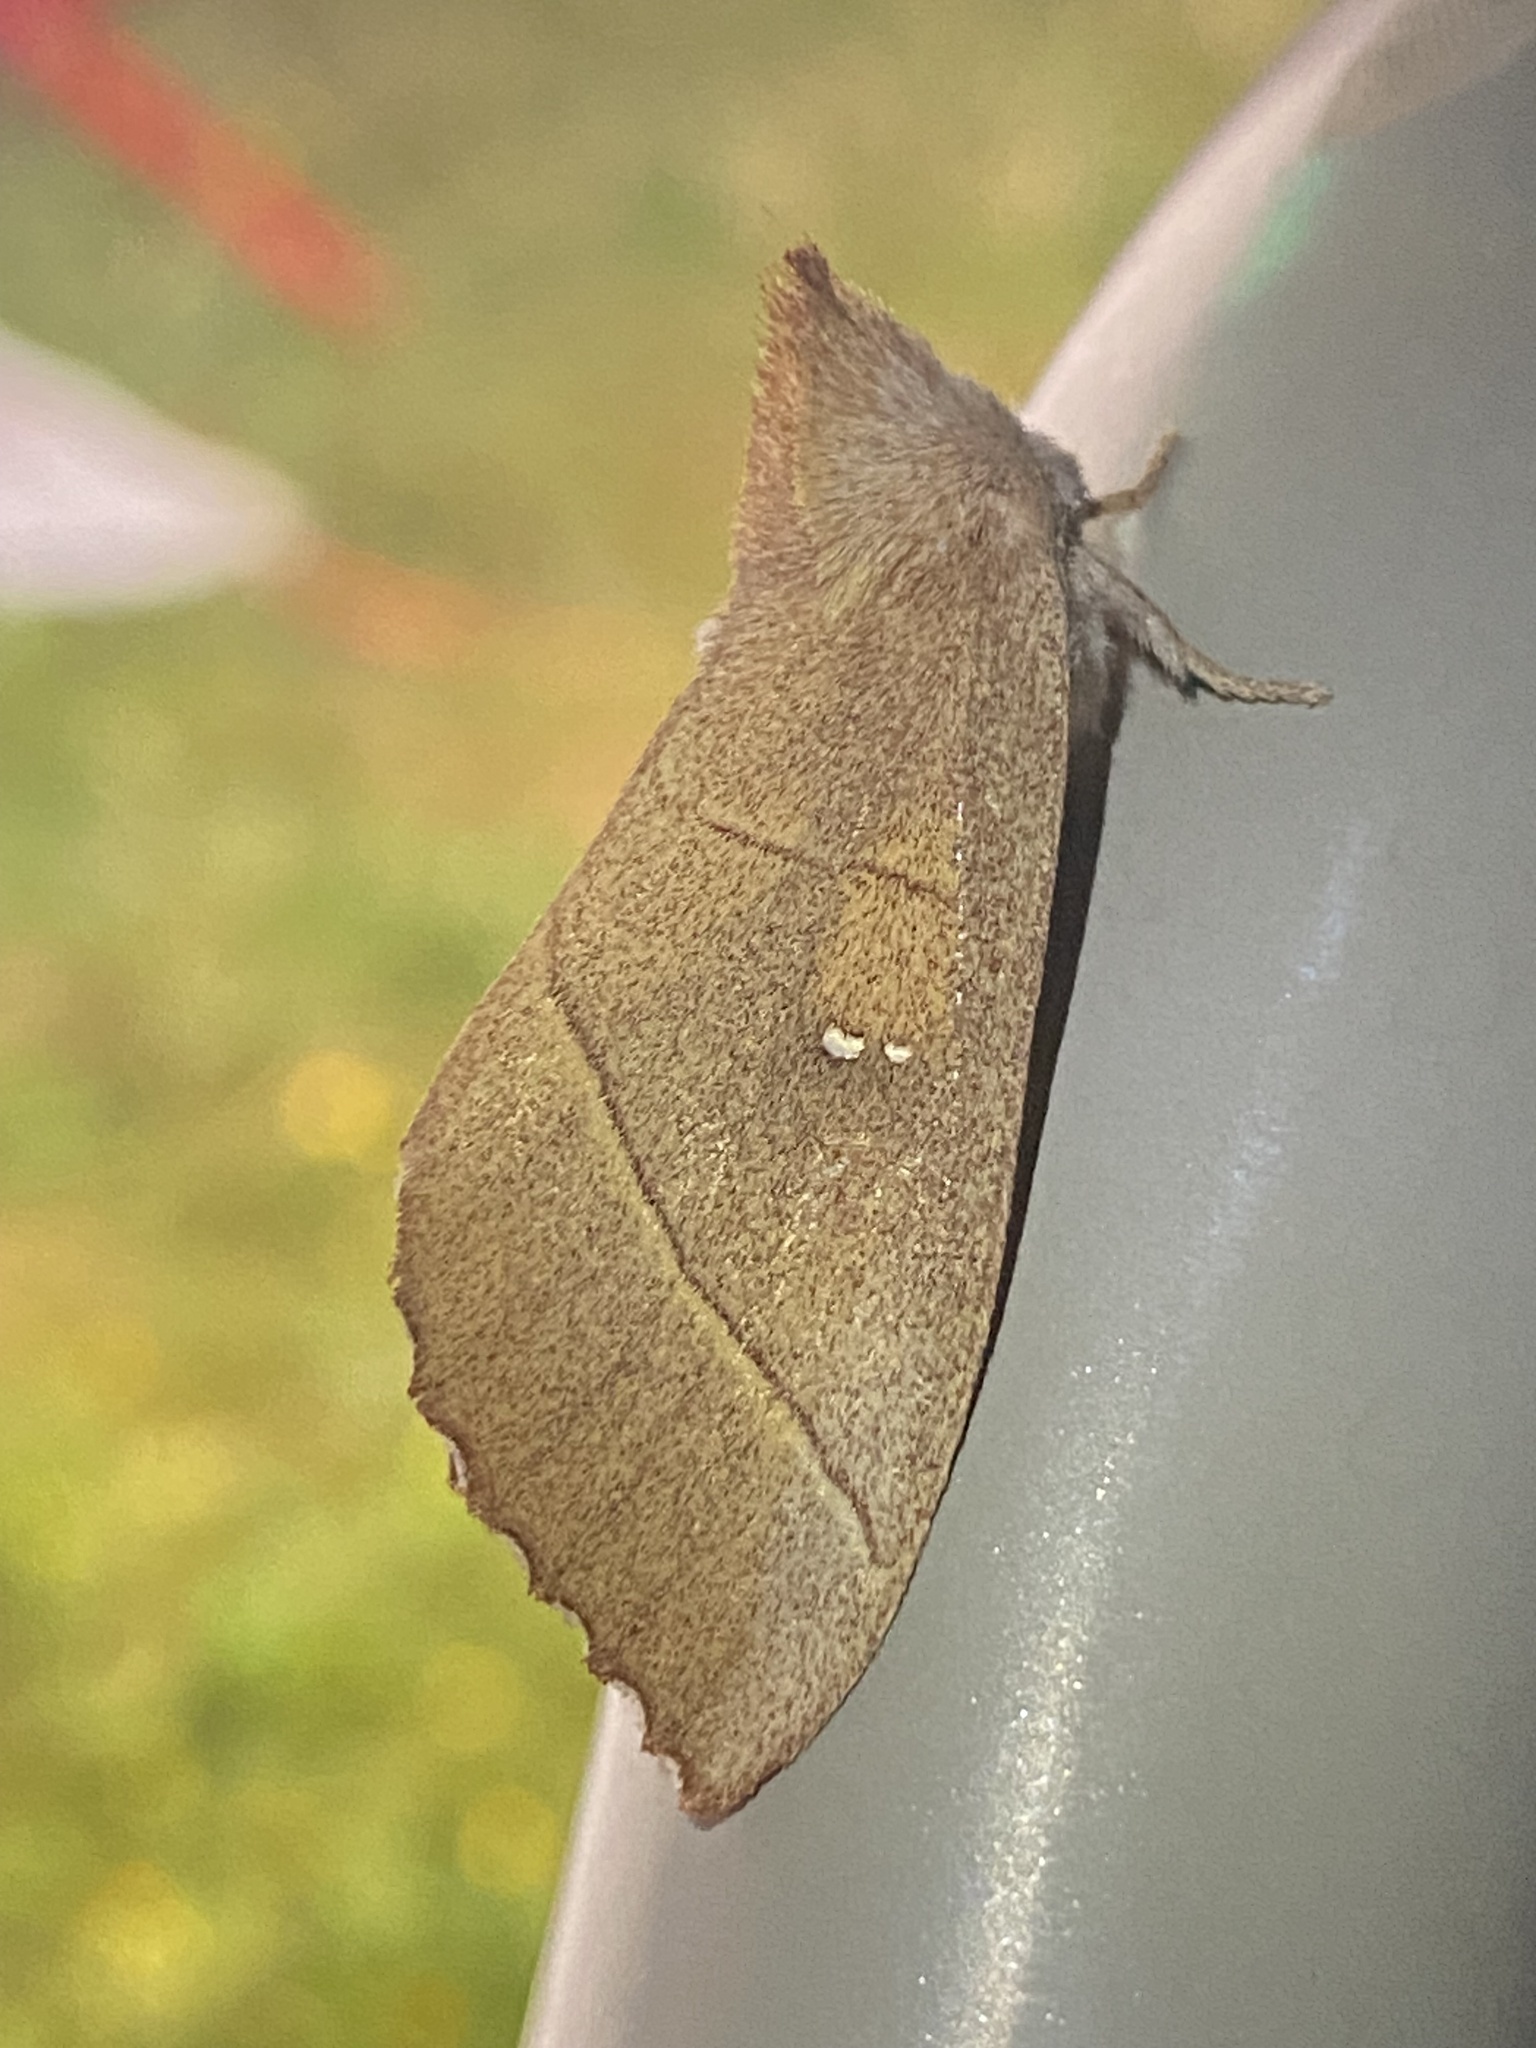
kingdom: Animalia
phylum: Arthropoda
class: Insecta
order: Lepidoptera
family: Notodontidae
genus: Nadata
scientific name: Nadata gibbosa
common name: White-dotted prominent
